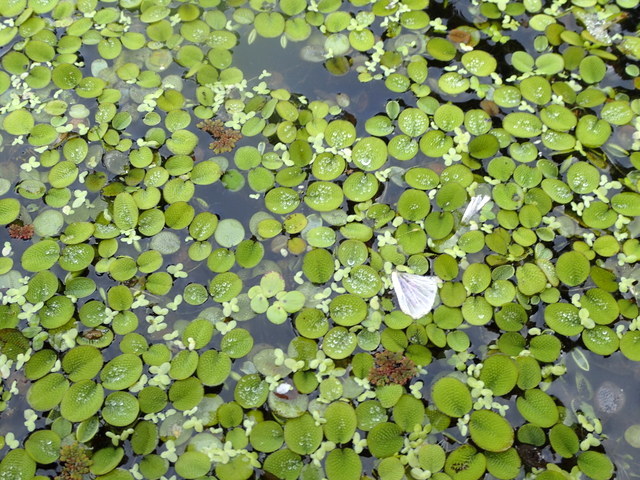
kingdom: Plantae
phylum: Tracheophyta
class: Polypodiopsida
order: Salviniales
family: Salviniaceae
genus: Salvinia
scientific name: Salvinia minima
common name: Water spangles
